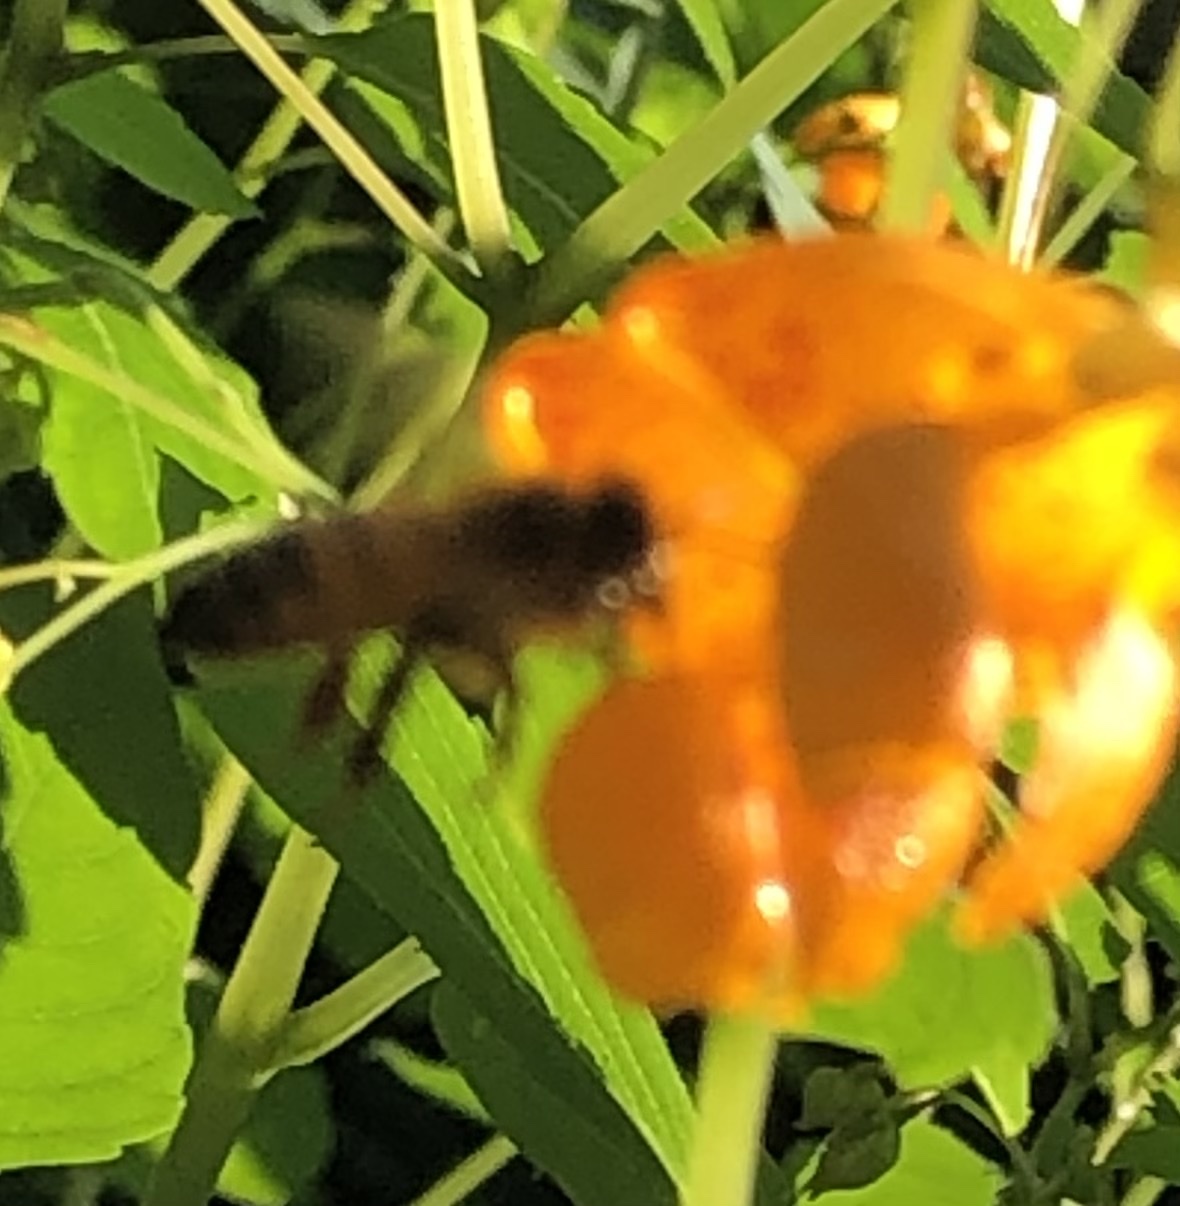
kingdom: Animalia
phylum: Arthropoda
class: Insecta
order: Hymenoptera
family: Apidae
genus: Apis
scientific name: Apis mellifera
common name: Honey bee
